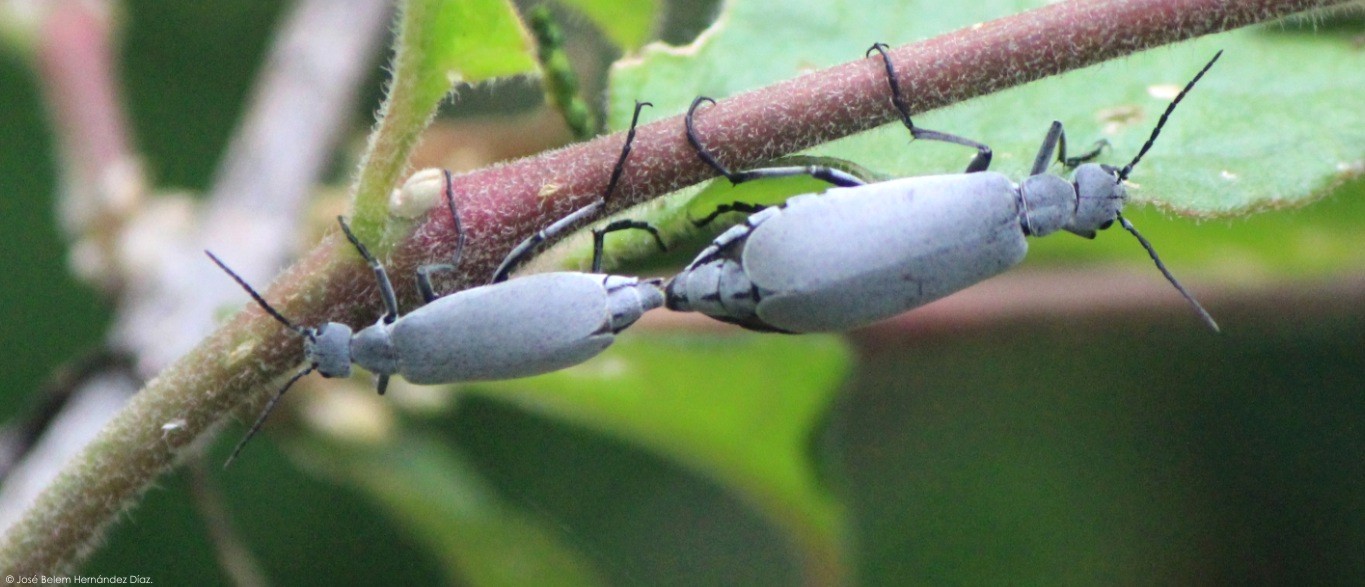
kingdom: Animalia
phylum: Arthropoda
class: Insecta
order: Coleoptera
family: Meloidae
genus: Epicauta
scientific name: Epicauta obesa
